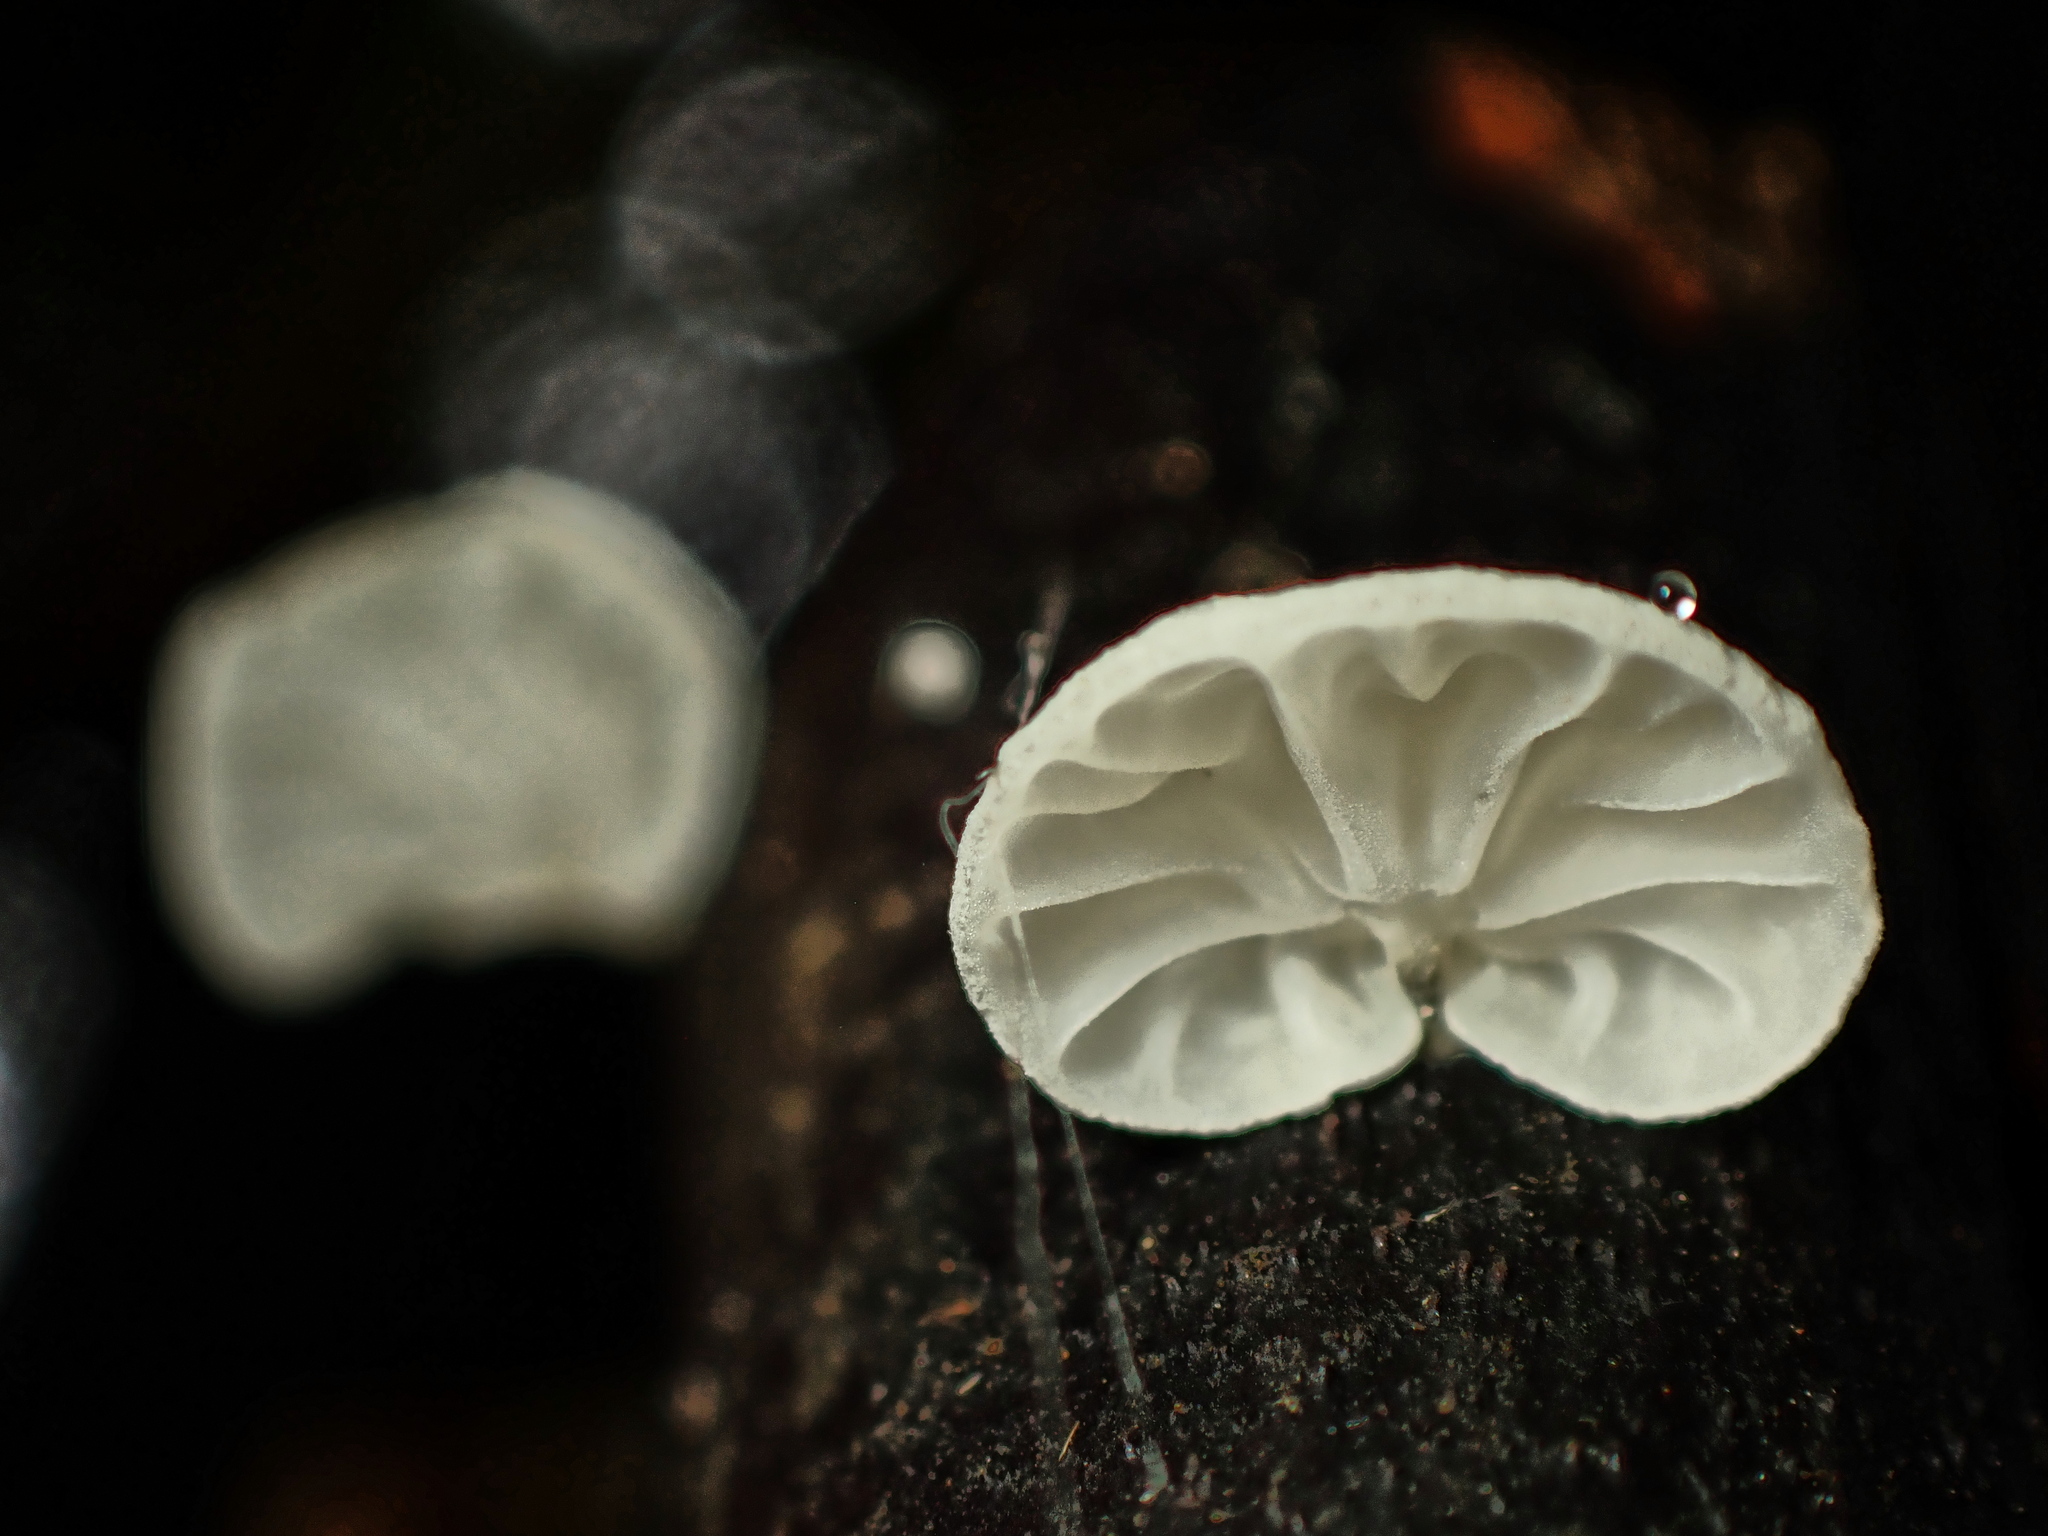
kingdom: Fungi
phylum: Basidiomycota
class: Agaricomycetes
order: Agaricales
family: Marasmiaceae
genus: Campanella
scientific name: Campanella tristis
